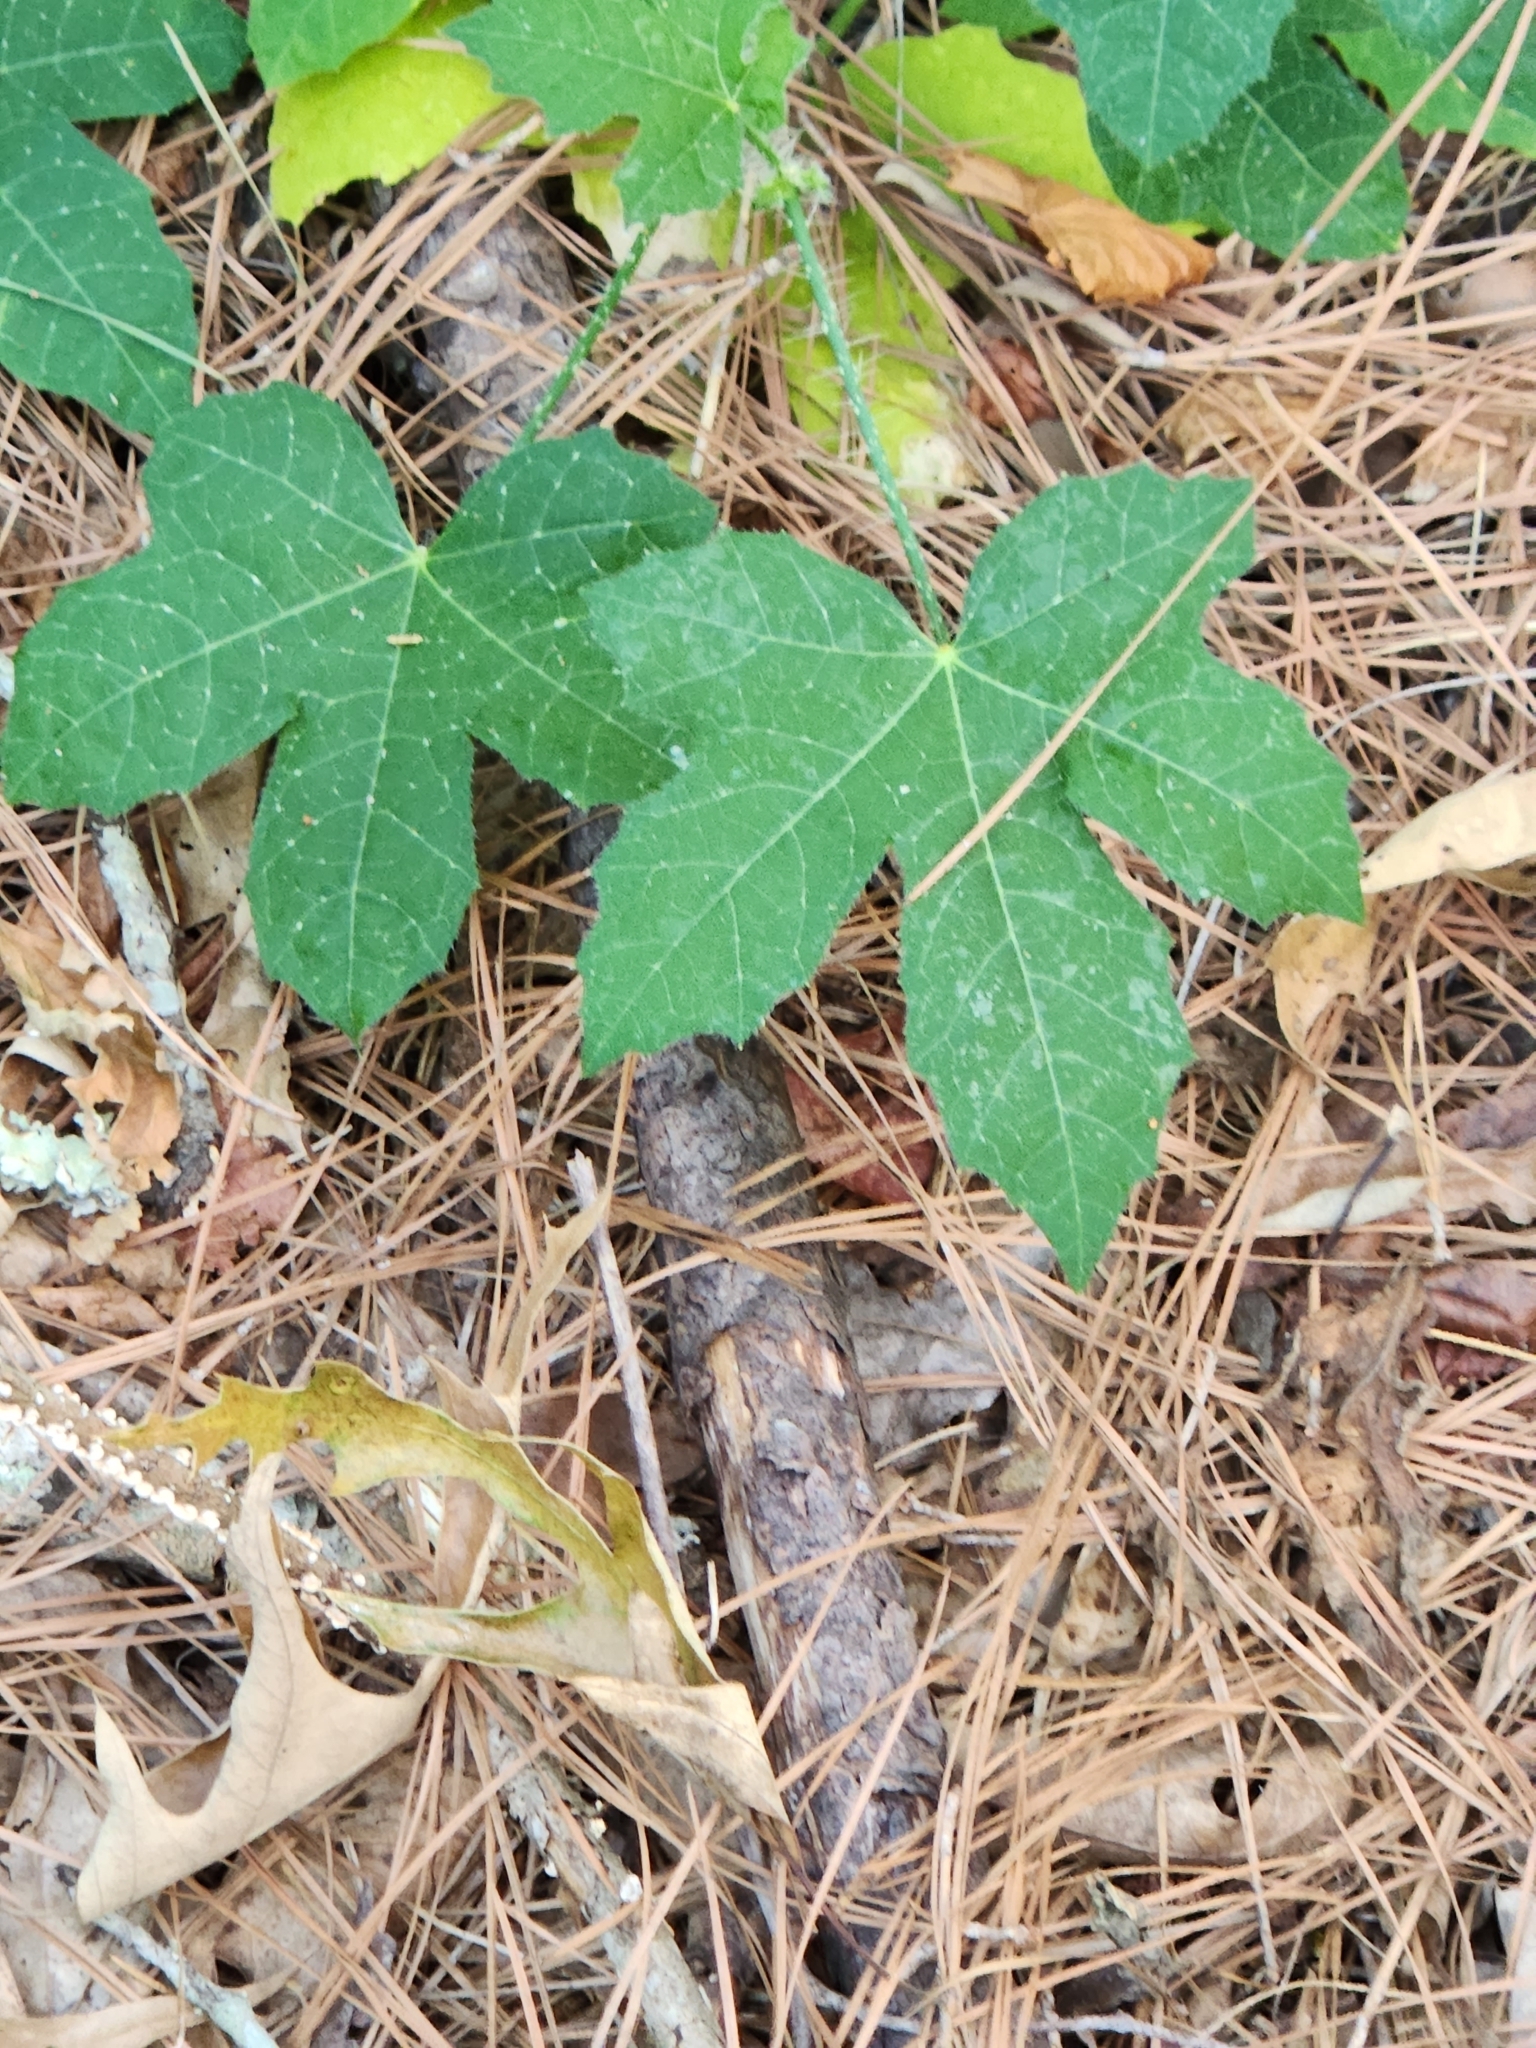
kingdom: Plantae
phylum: Tracheophyta
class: Magnoliopsida
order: Malpighiales
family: Euphorbiaceae
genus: Cnidoscolus
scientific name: Cnidoscolus texanus
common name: Texas bull-nettle
